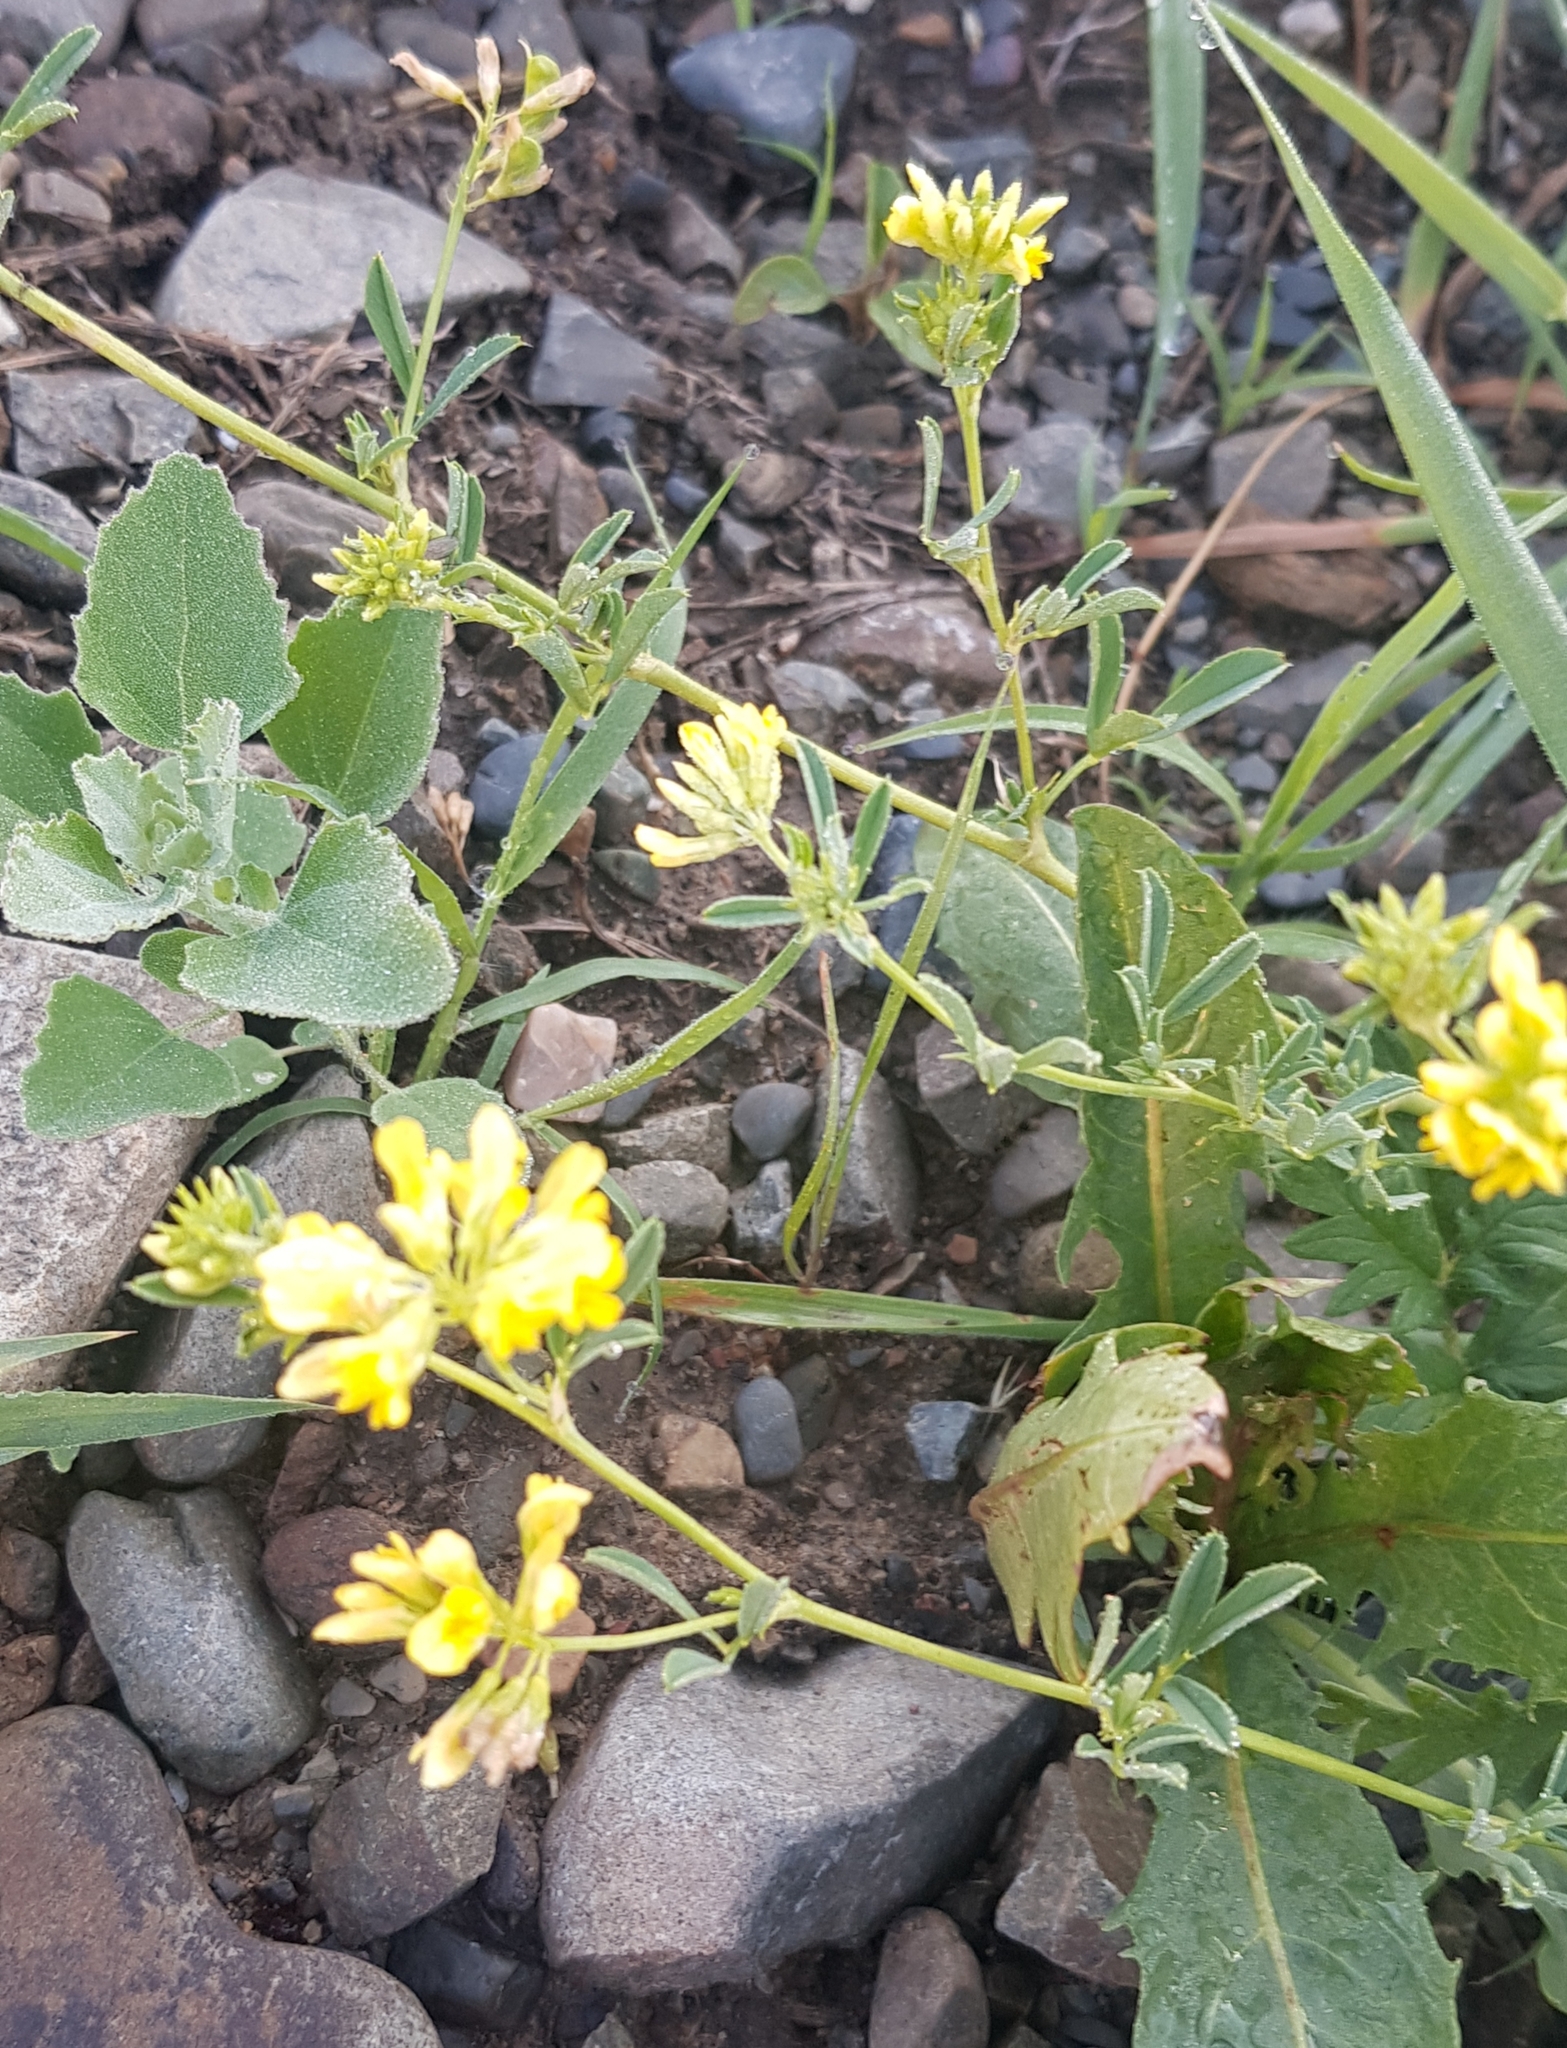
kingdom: Plantae
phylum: Tracheophyta
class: Magnoliopsida
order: Fabales
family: Fabaceae
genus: Medicago
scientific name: Medicago falcata
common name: Sickle medick
